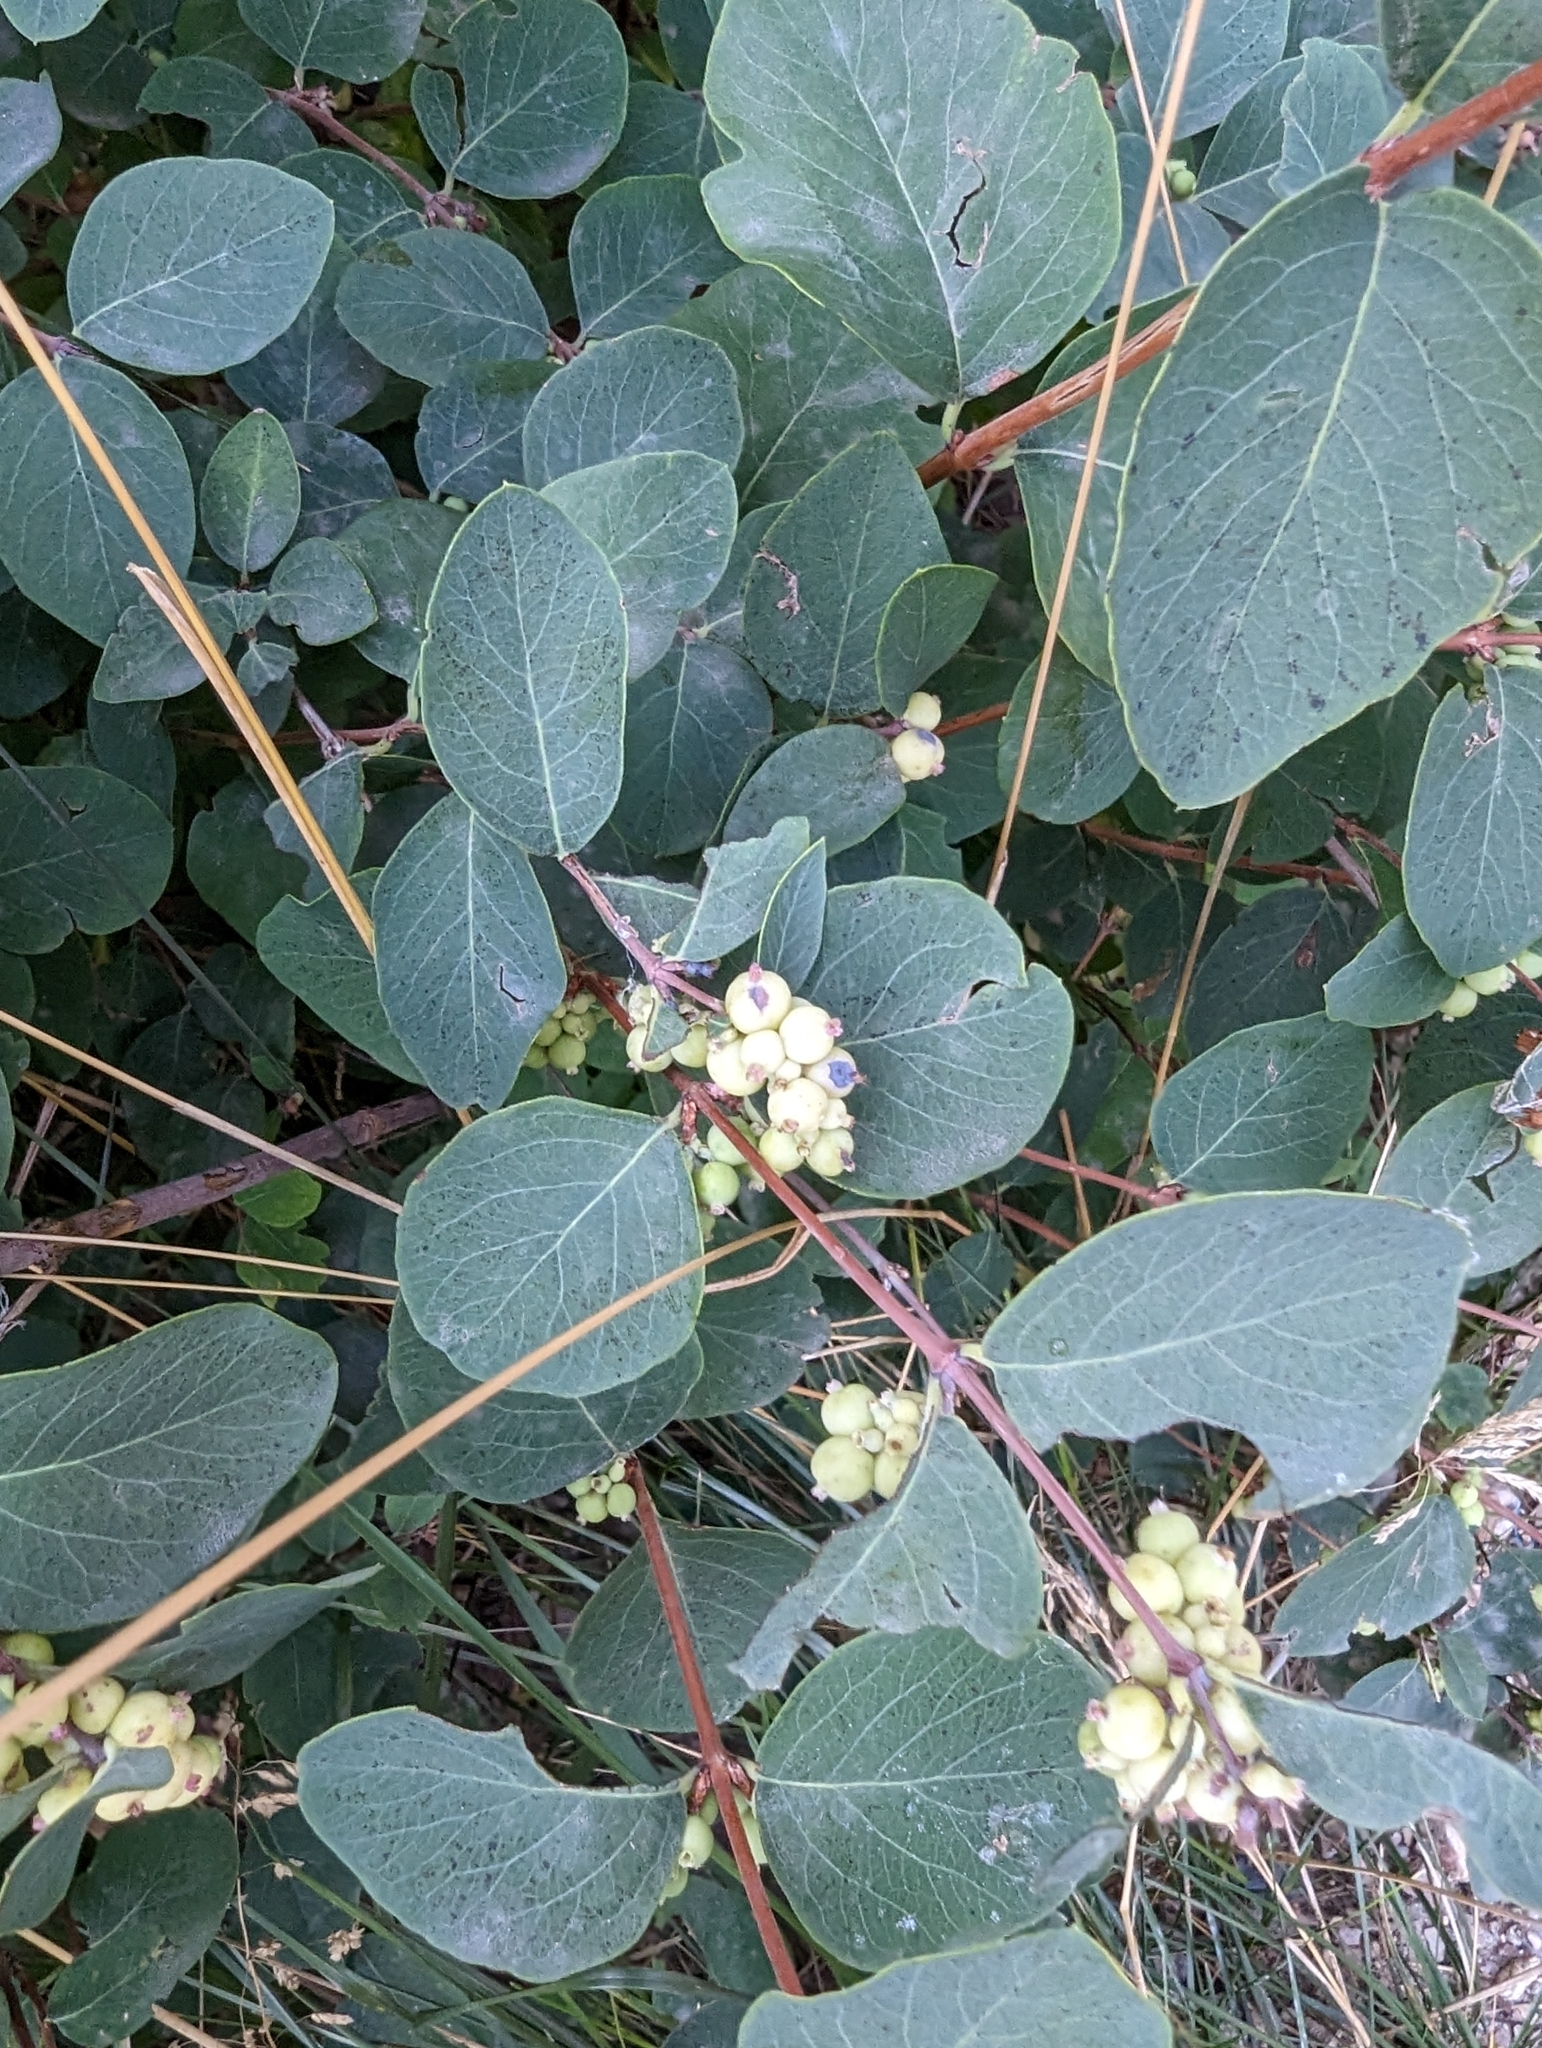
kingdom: Plantae
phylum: Tracheophyta
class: Magnoliopsida
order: Dipsacales
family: Caprifoliaceae
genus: Symphoricarpos
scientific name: Symphoricarpos albus
